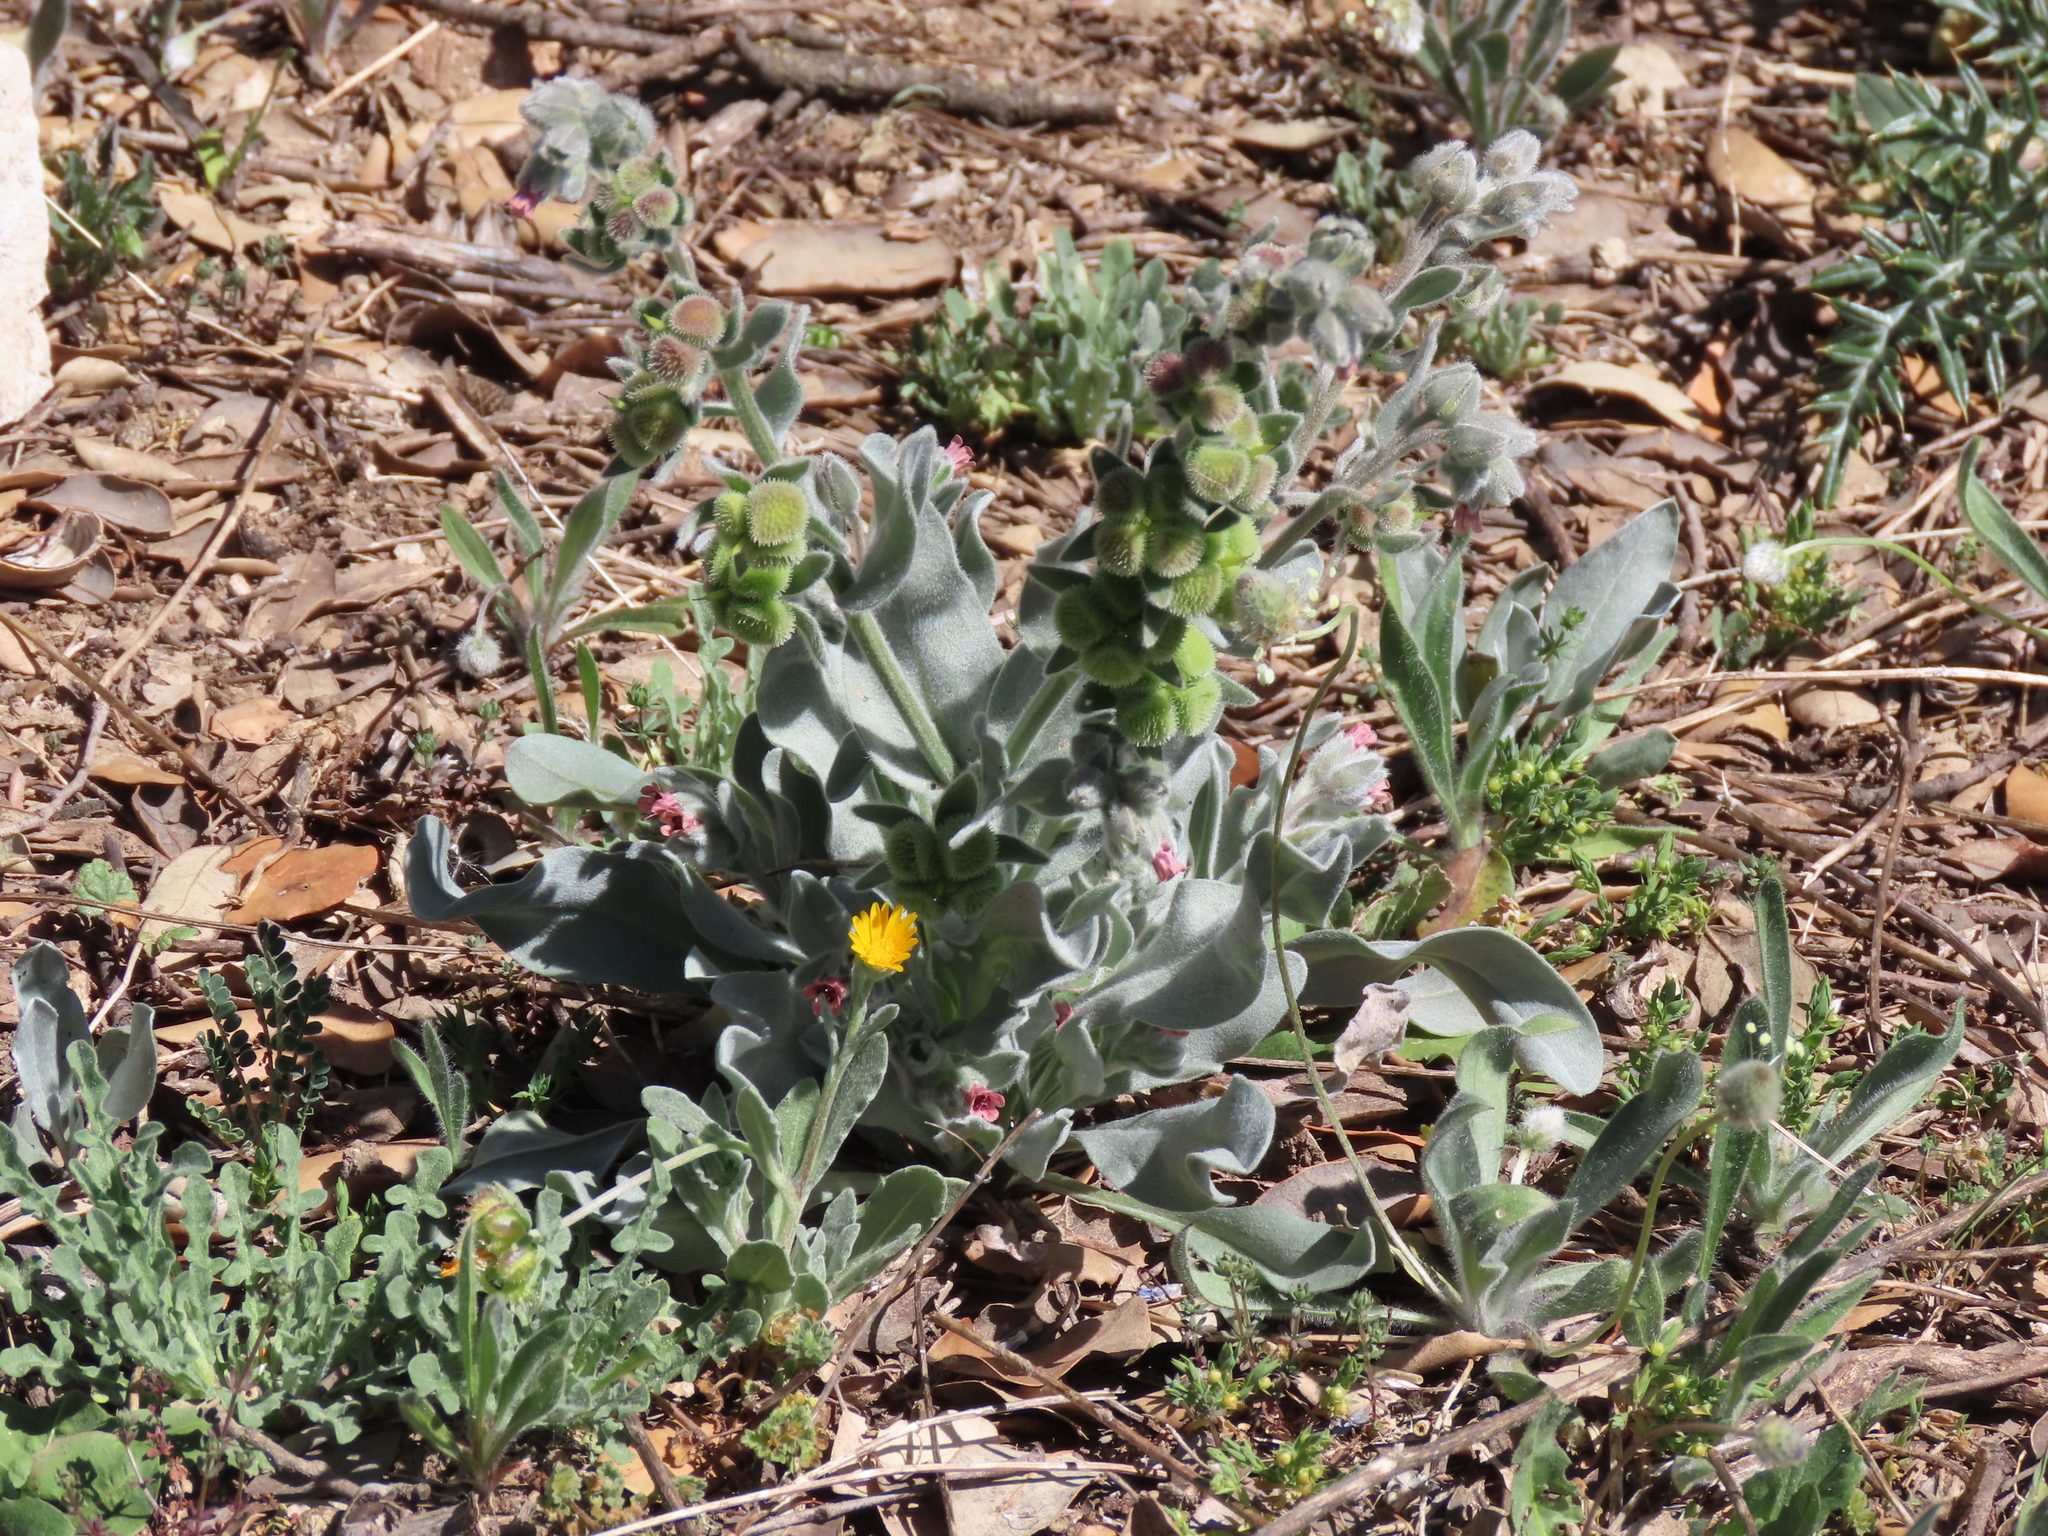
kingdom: Plantae
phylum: Tracheophyta
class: Magnoliopsida
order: Boraginales
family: Boraginaceae
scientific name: Boraginaceae
